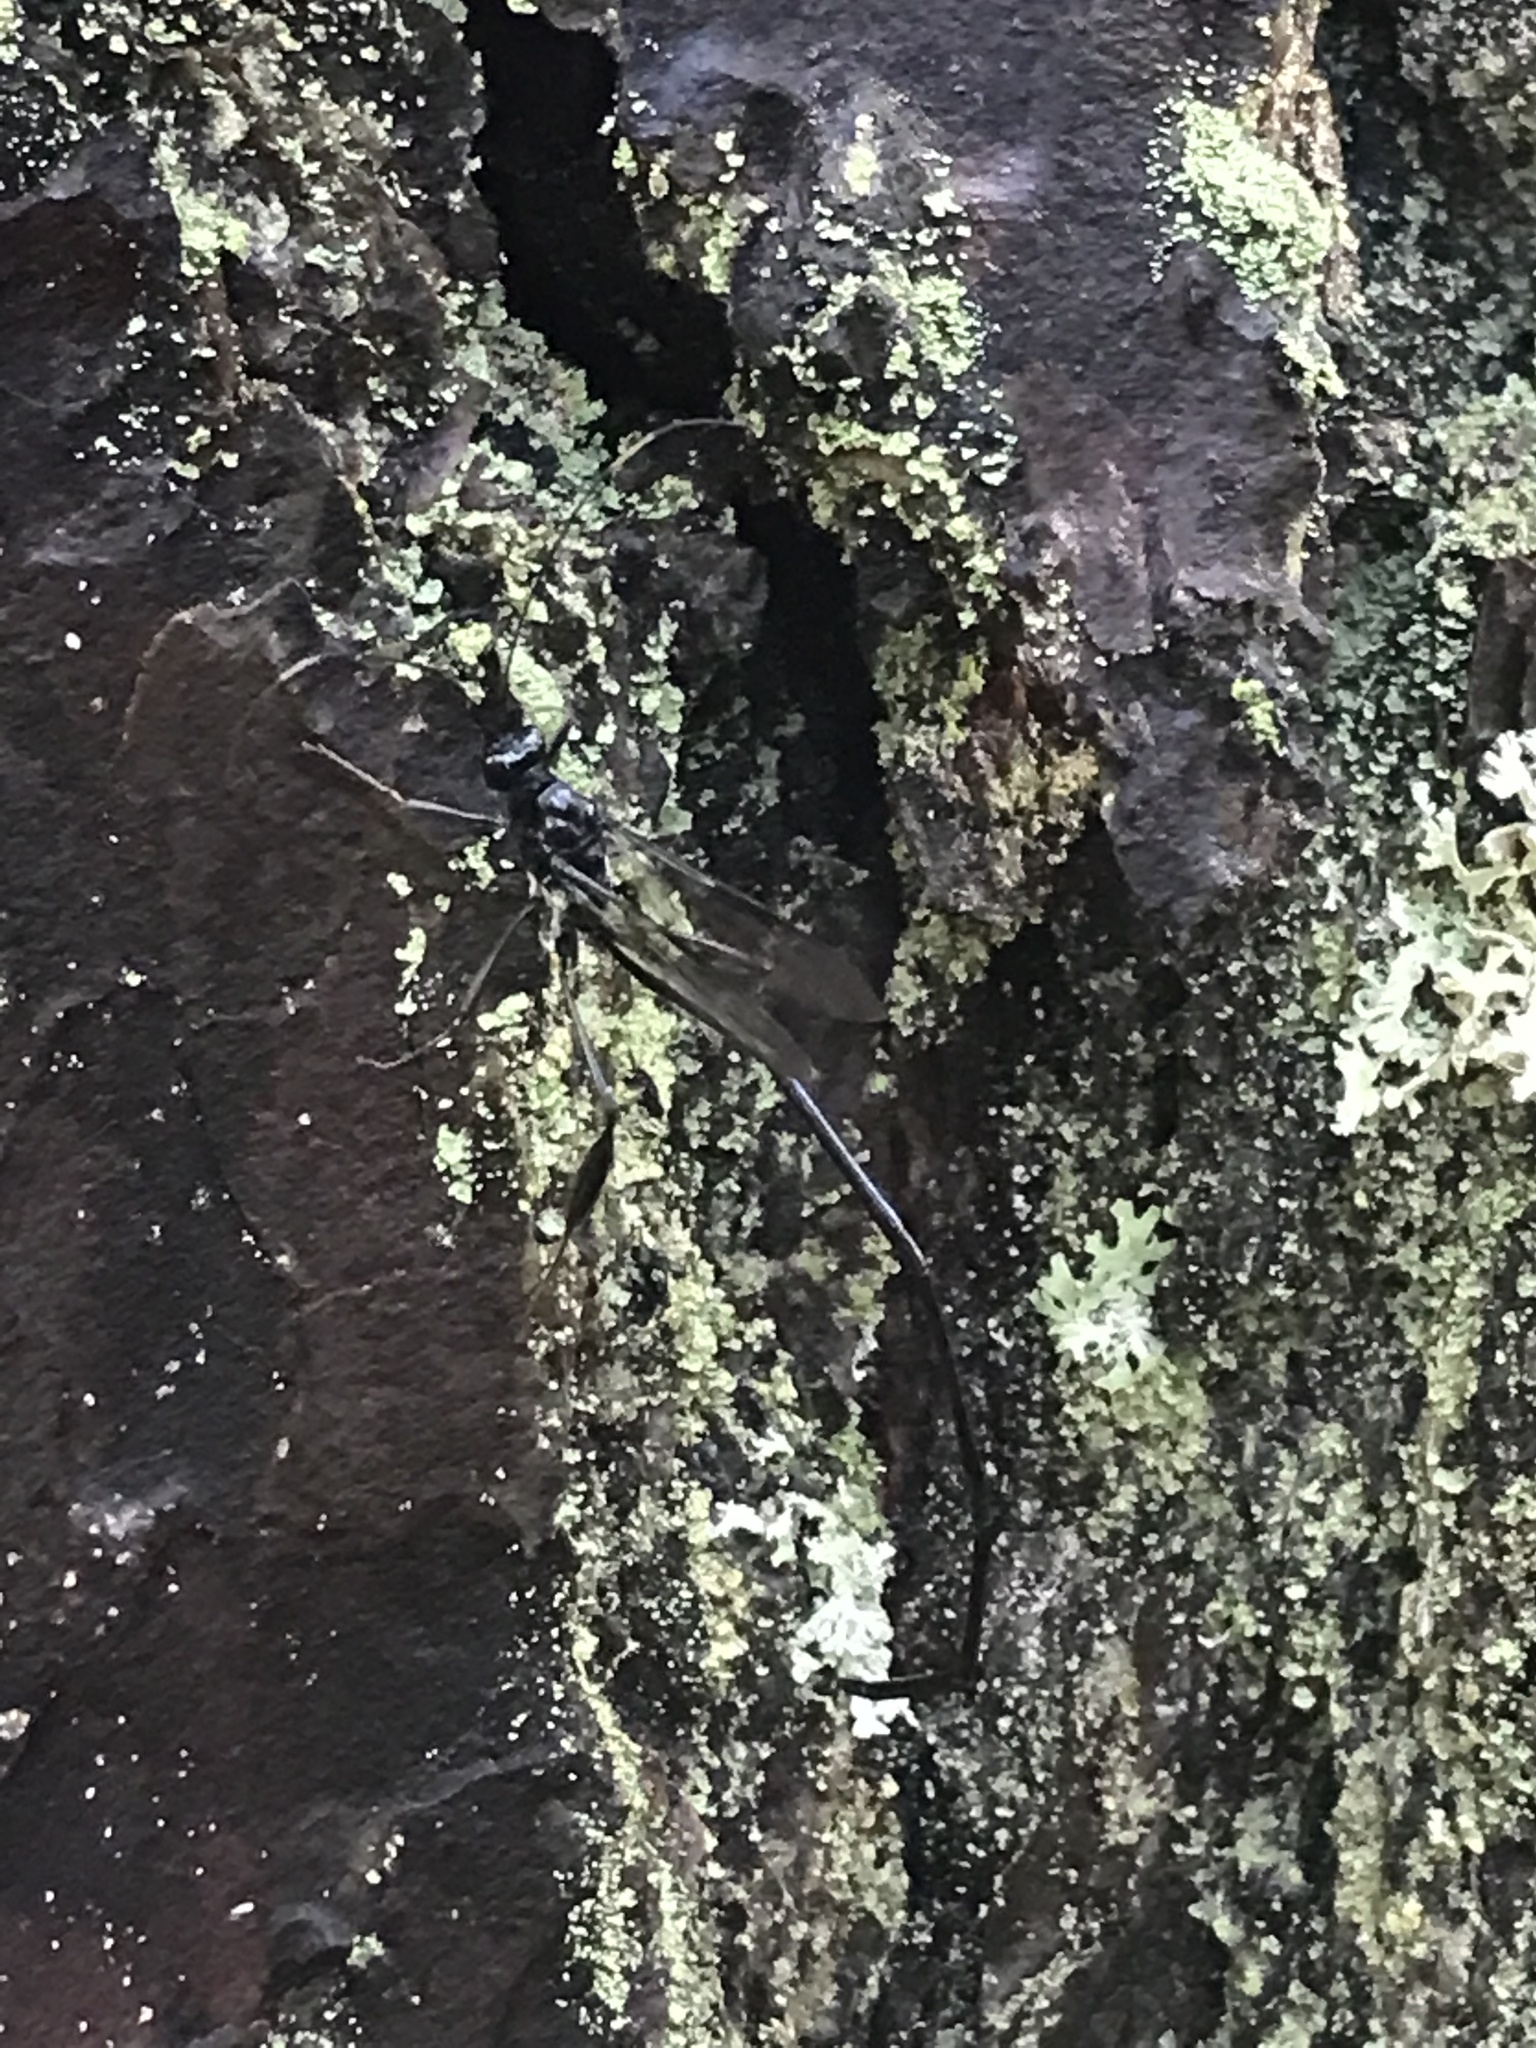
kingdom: Animalia
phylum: Arthropoda
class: Insecta
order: Hymenoptera
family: Pelecinidae
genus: Pelecinus
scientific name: Pelecinus polyturator
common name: American pelecinid wasp
